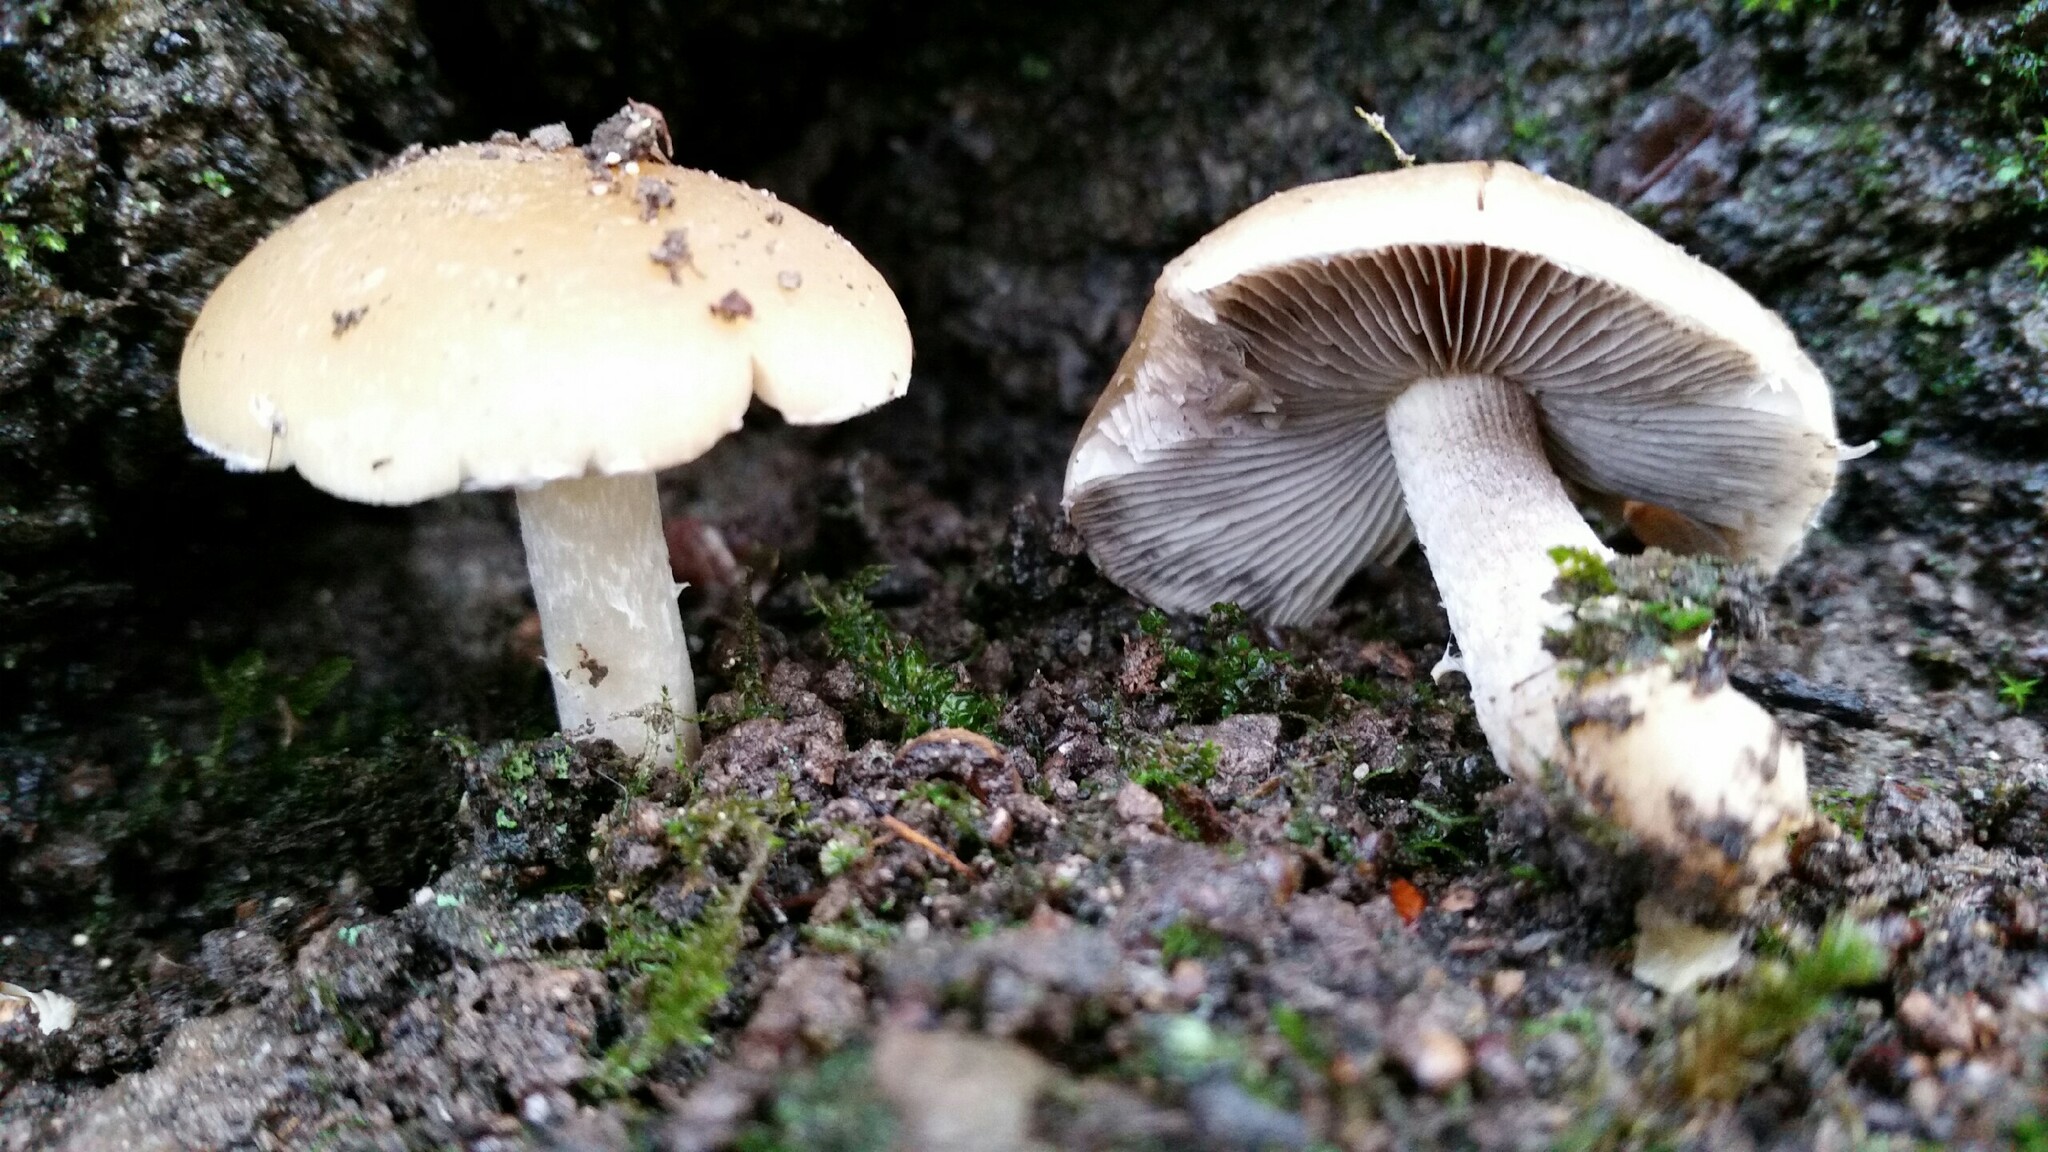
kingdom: Fungi
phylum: Basidiomycota
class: Agaricomycetes
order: Agaricales
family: Psathyrellaceae
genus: Candolleomyces
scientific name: Candolleomyces candolleanus
